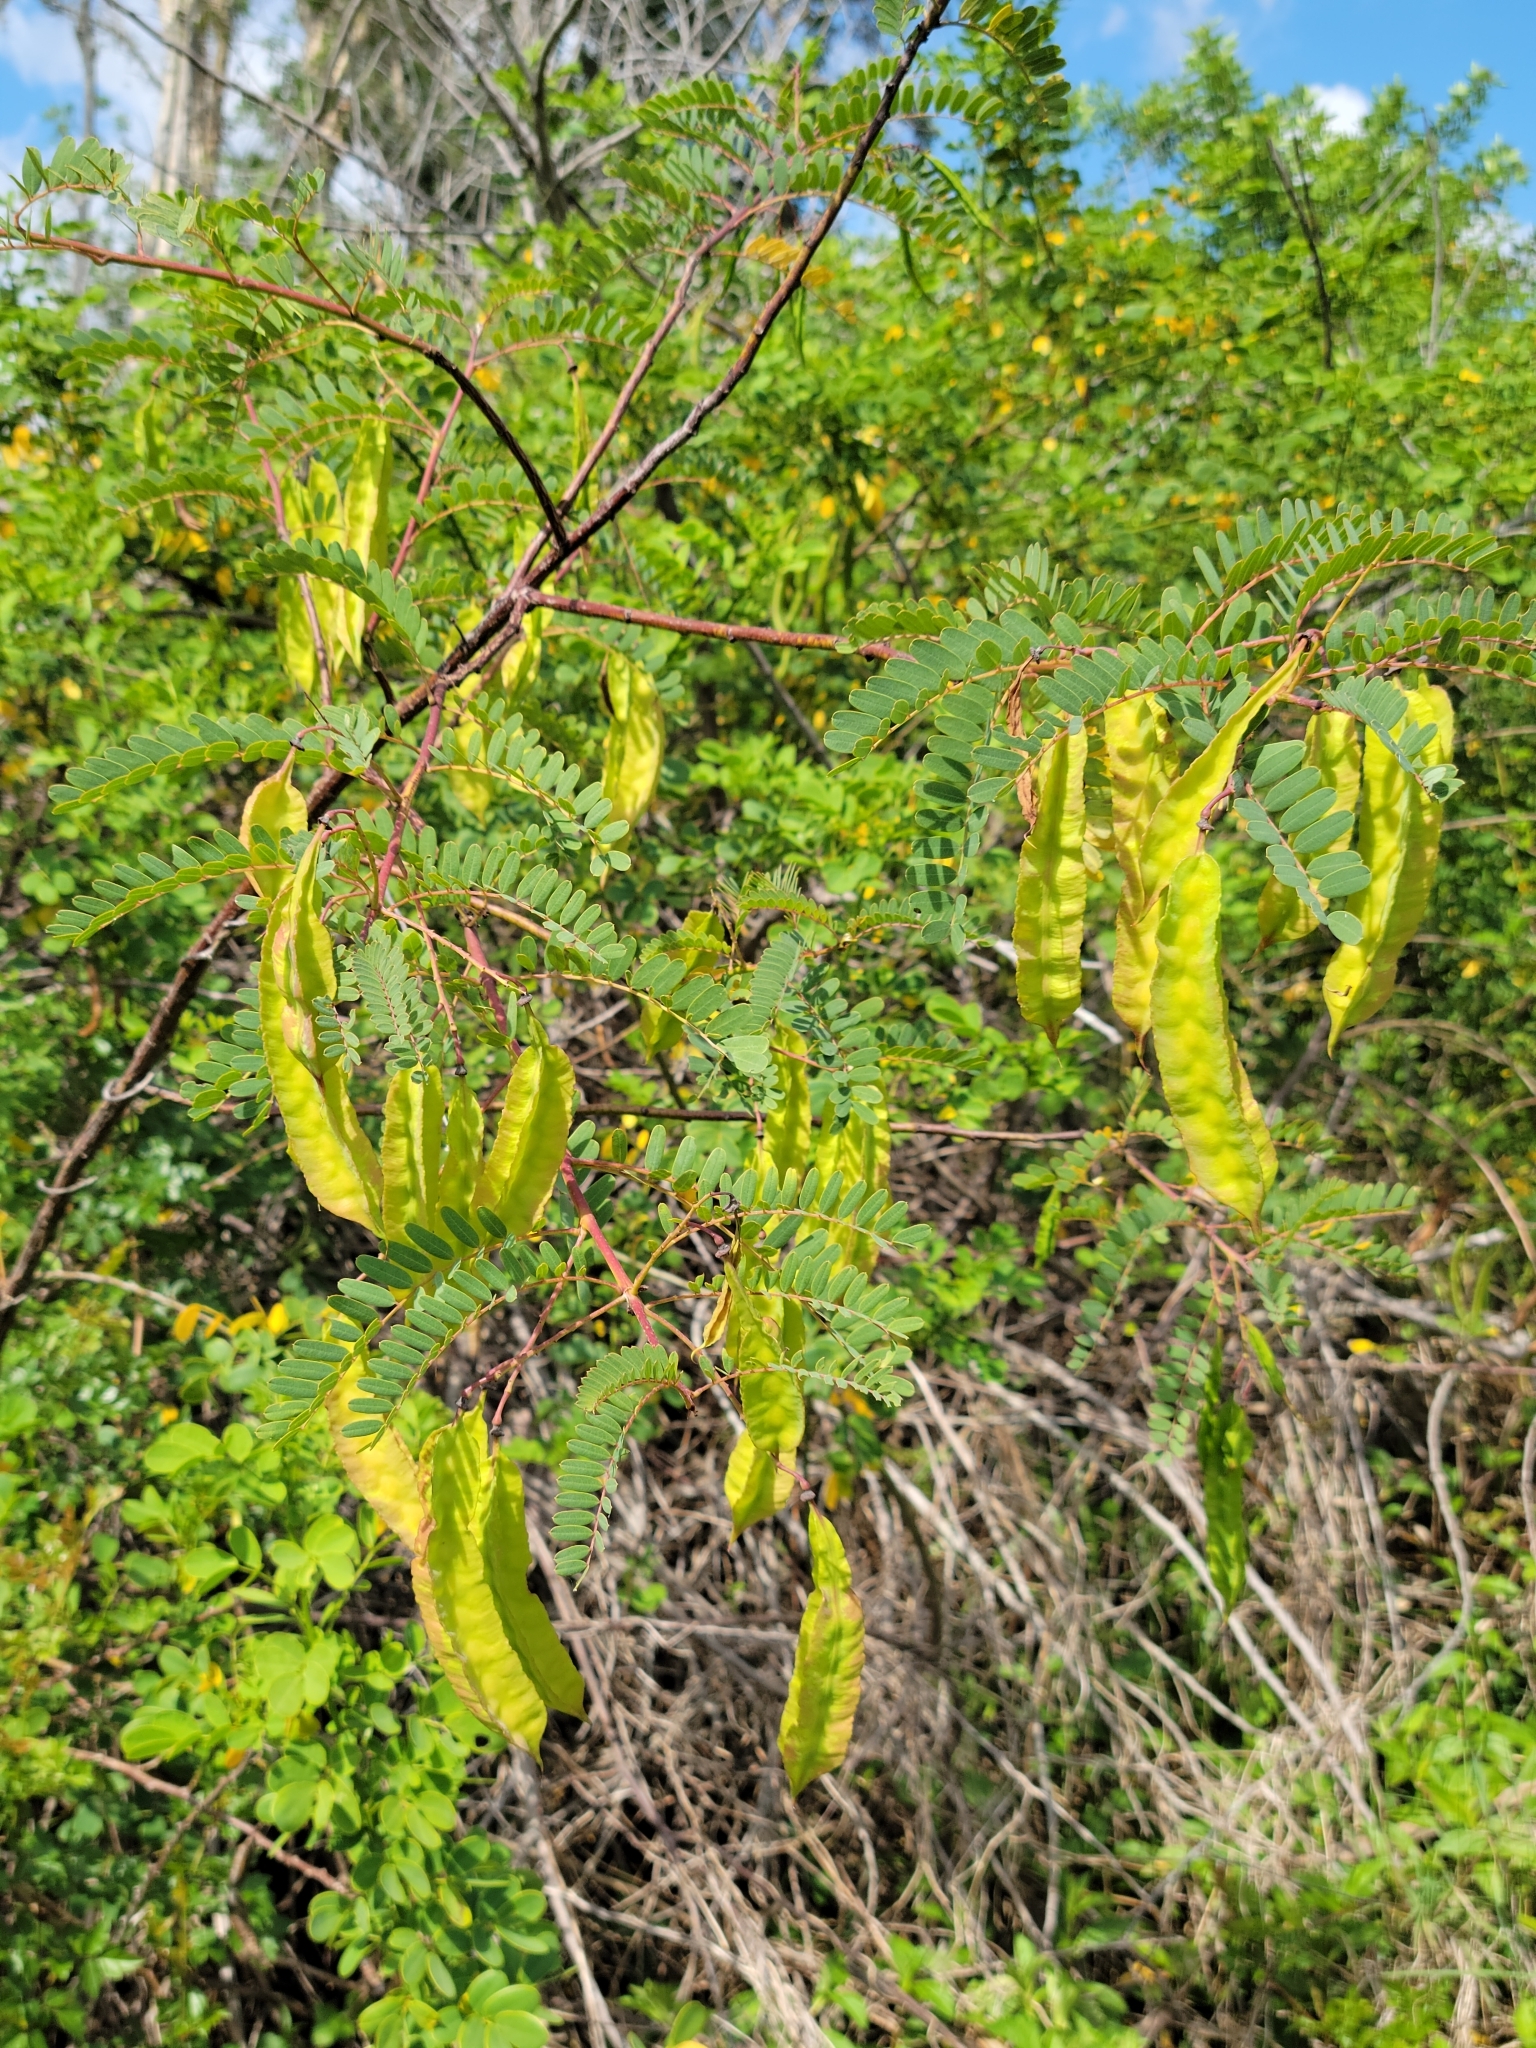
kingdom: Plantae
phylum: Tracheophyta
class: Magnoliopsida
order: Fabales
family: Fabaceae
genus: Sesbania
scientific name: Sesbania punicea
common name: Rattlebox
